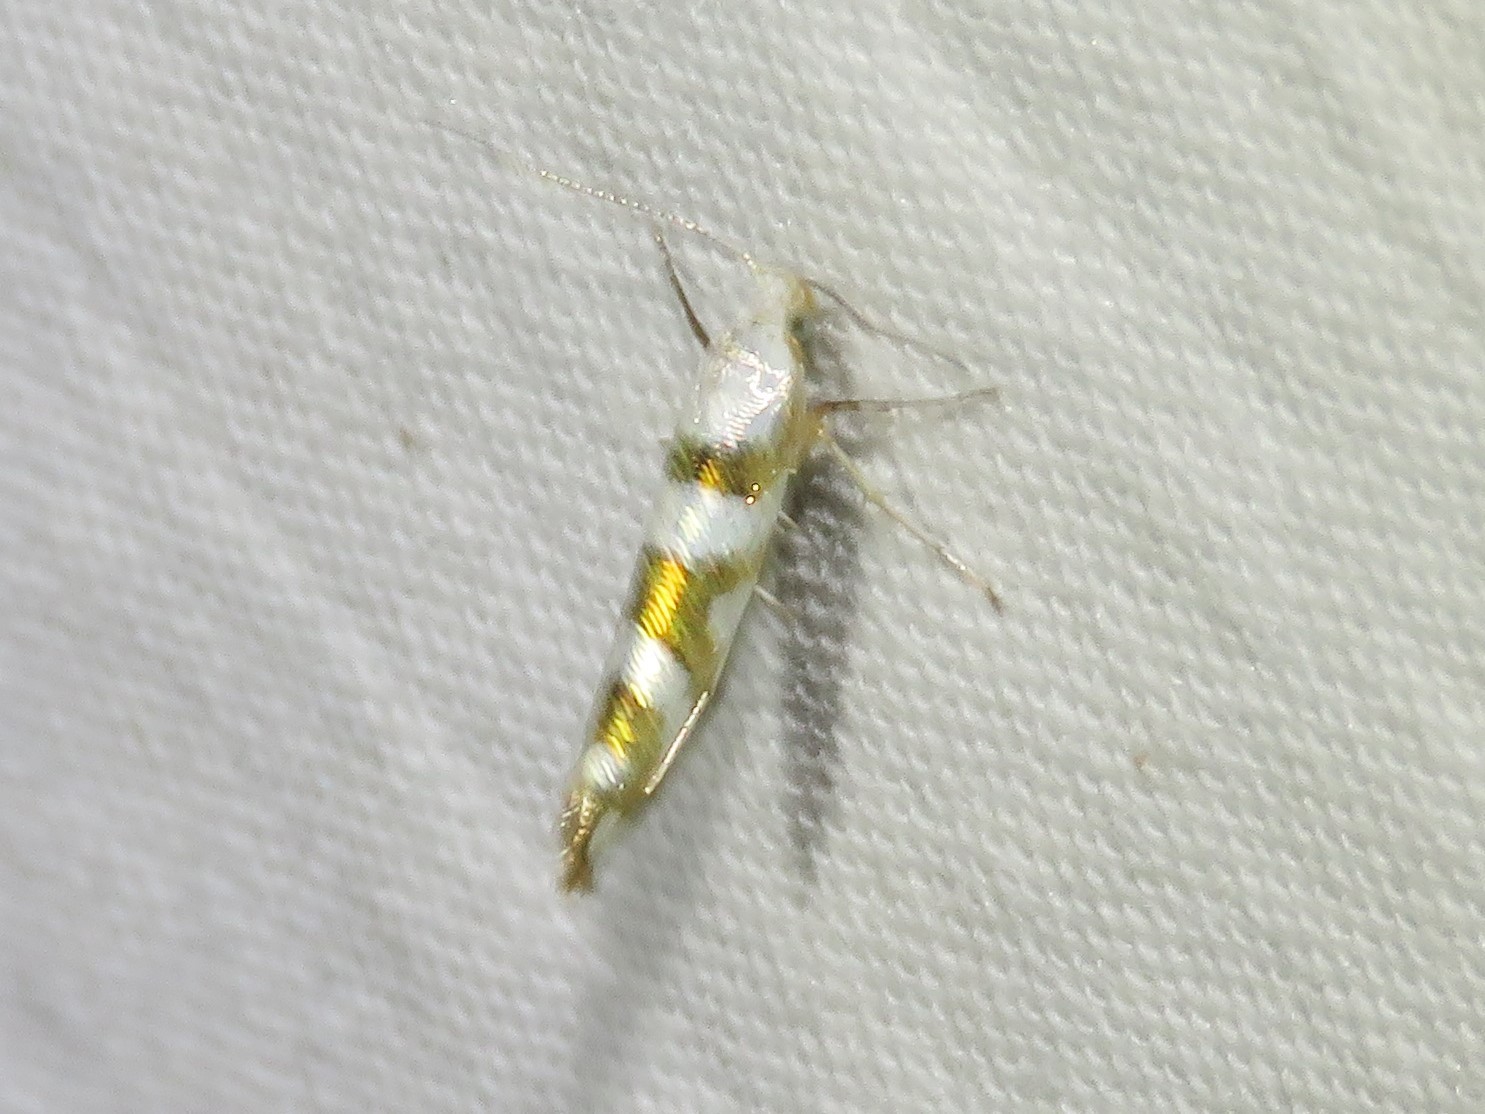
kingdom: Animalia
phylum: Arthropoda
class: Insecta
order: Lepidoptera
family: Argyresthiidae
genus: Argyresthia
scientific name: Argyresthia calliphanes
